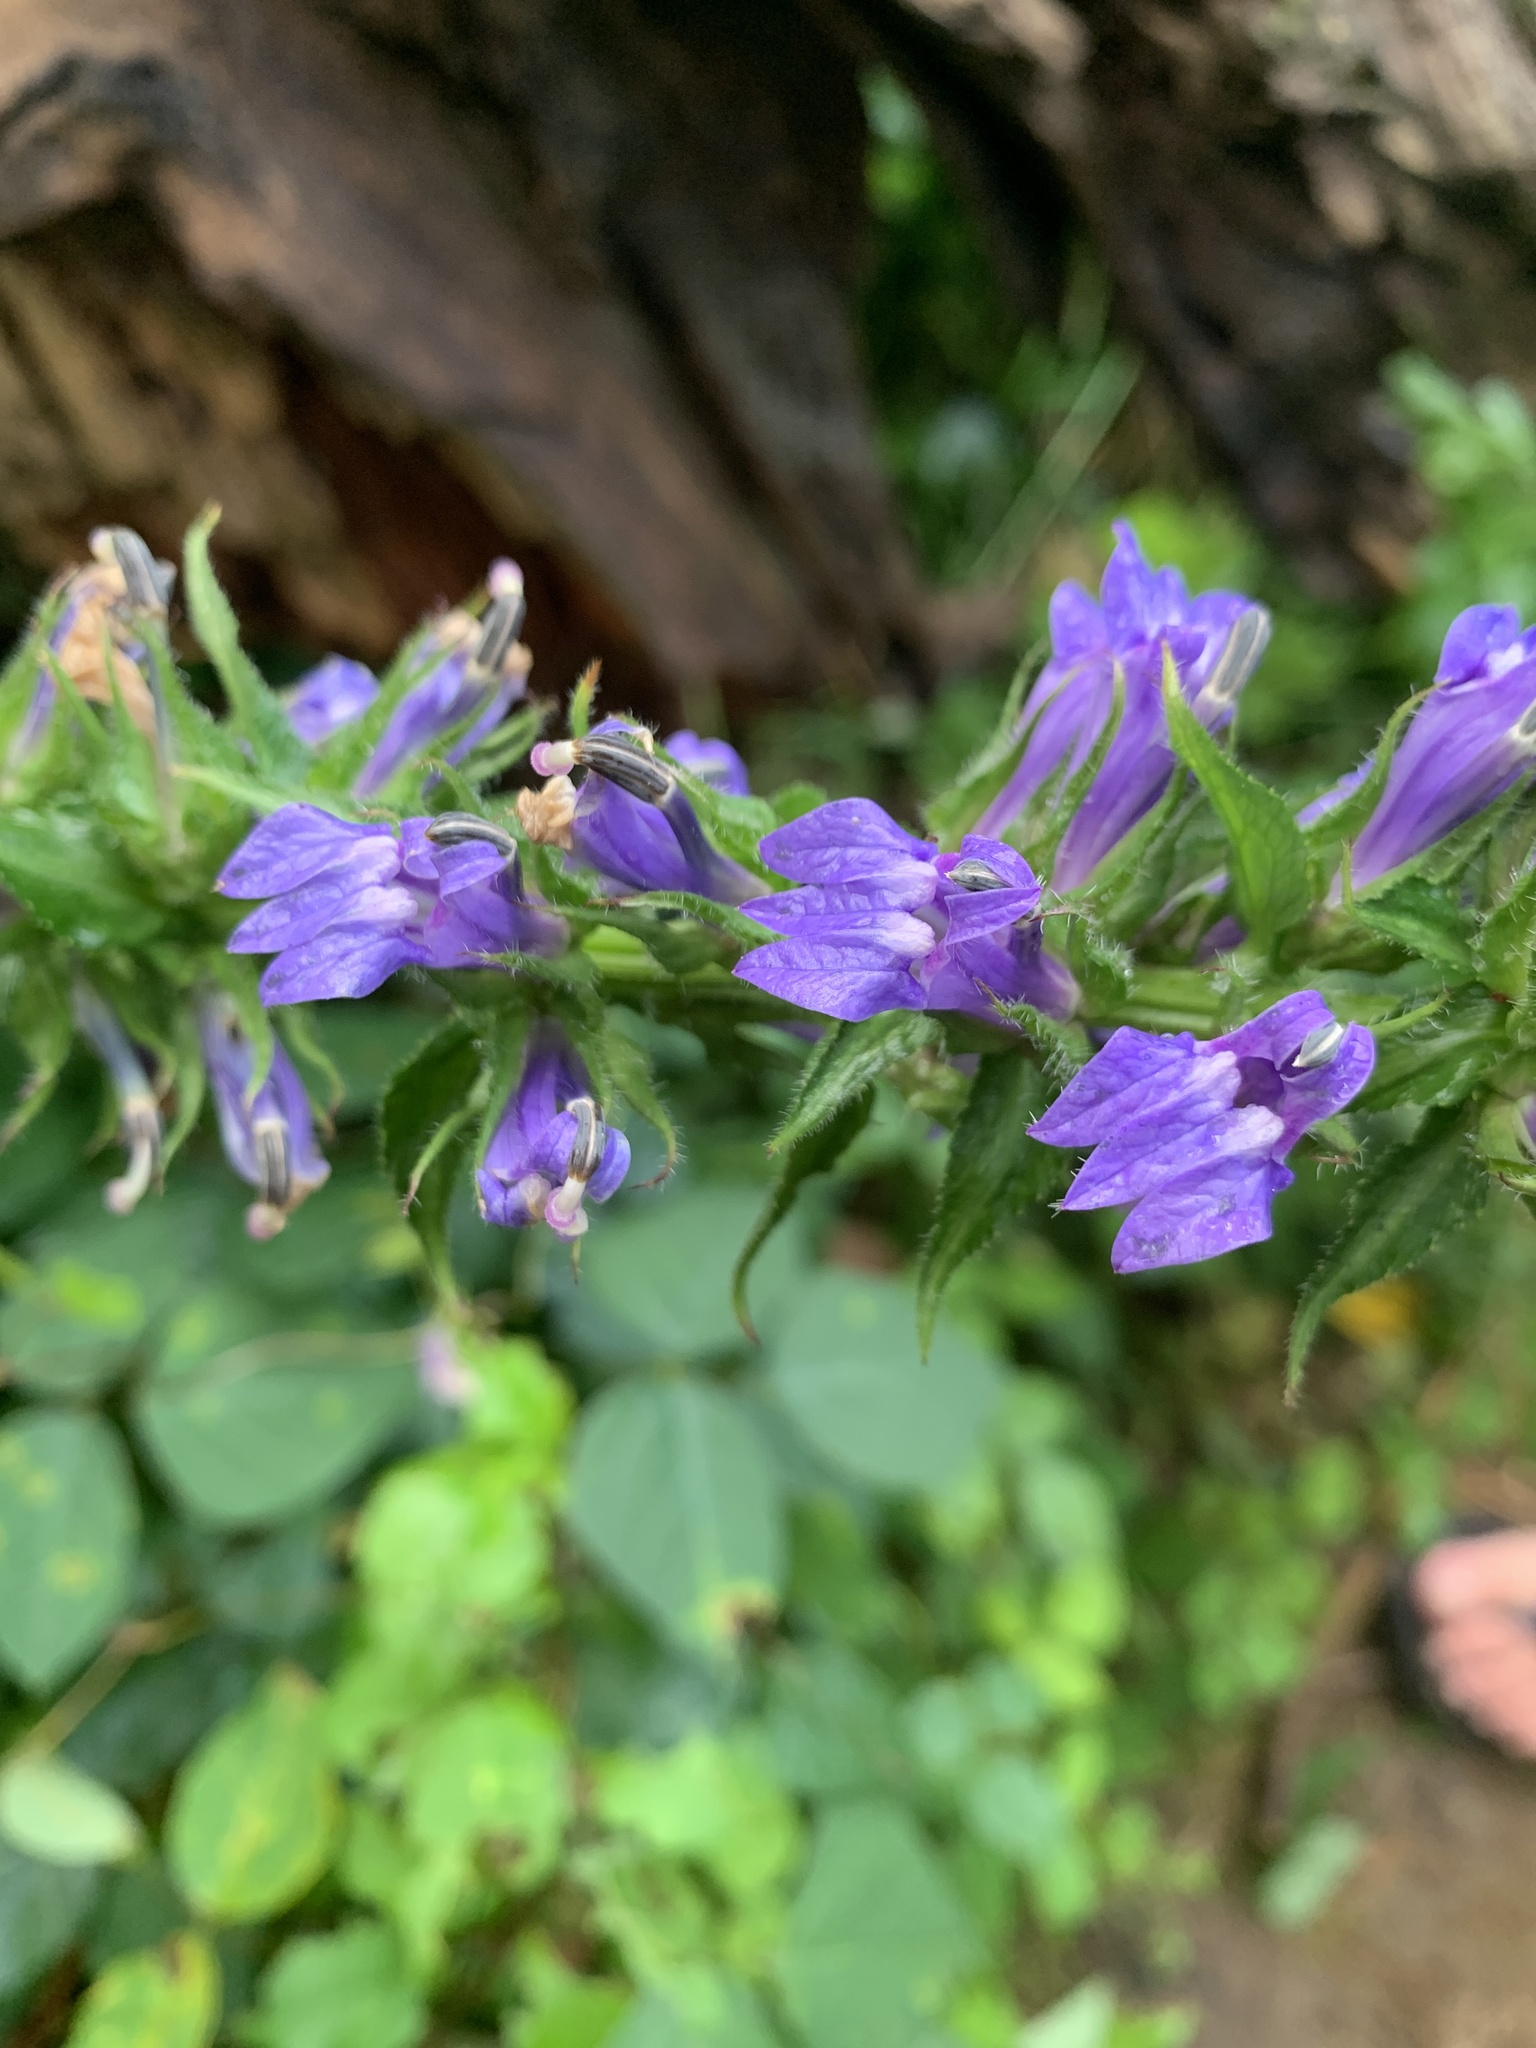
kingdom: Plantae
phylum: Tracheophyta
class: Magnoliopsida
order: Asterales
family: Campanulaceae
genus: Lobelia
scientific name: Lobelia siphilitica
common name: Great lobelia
